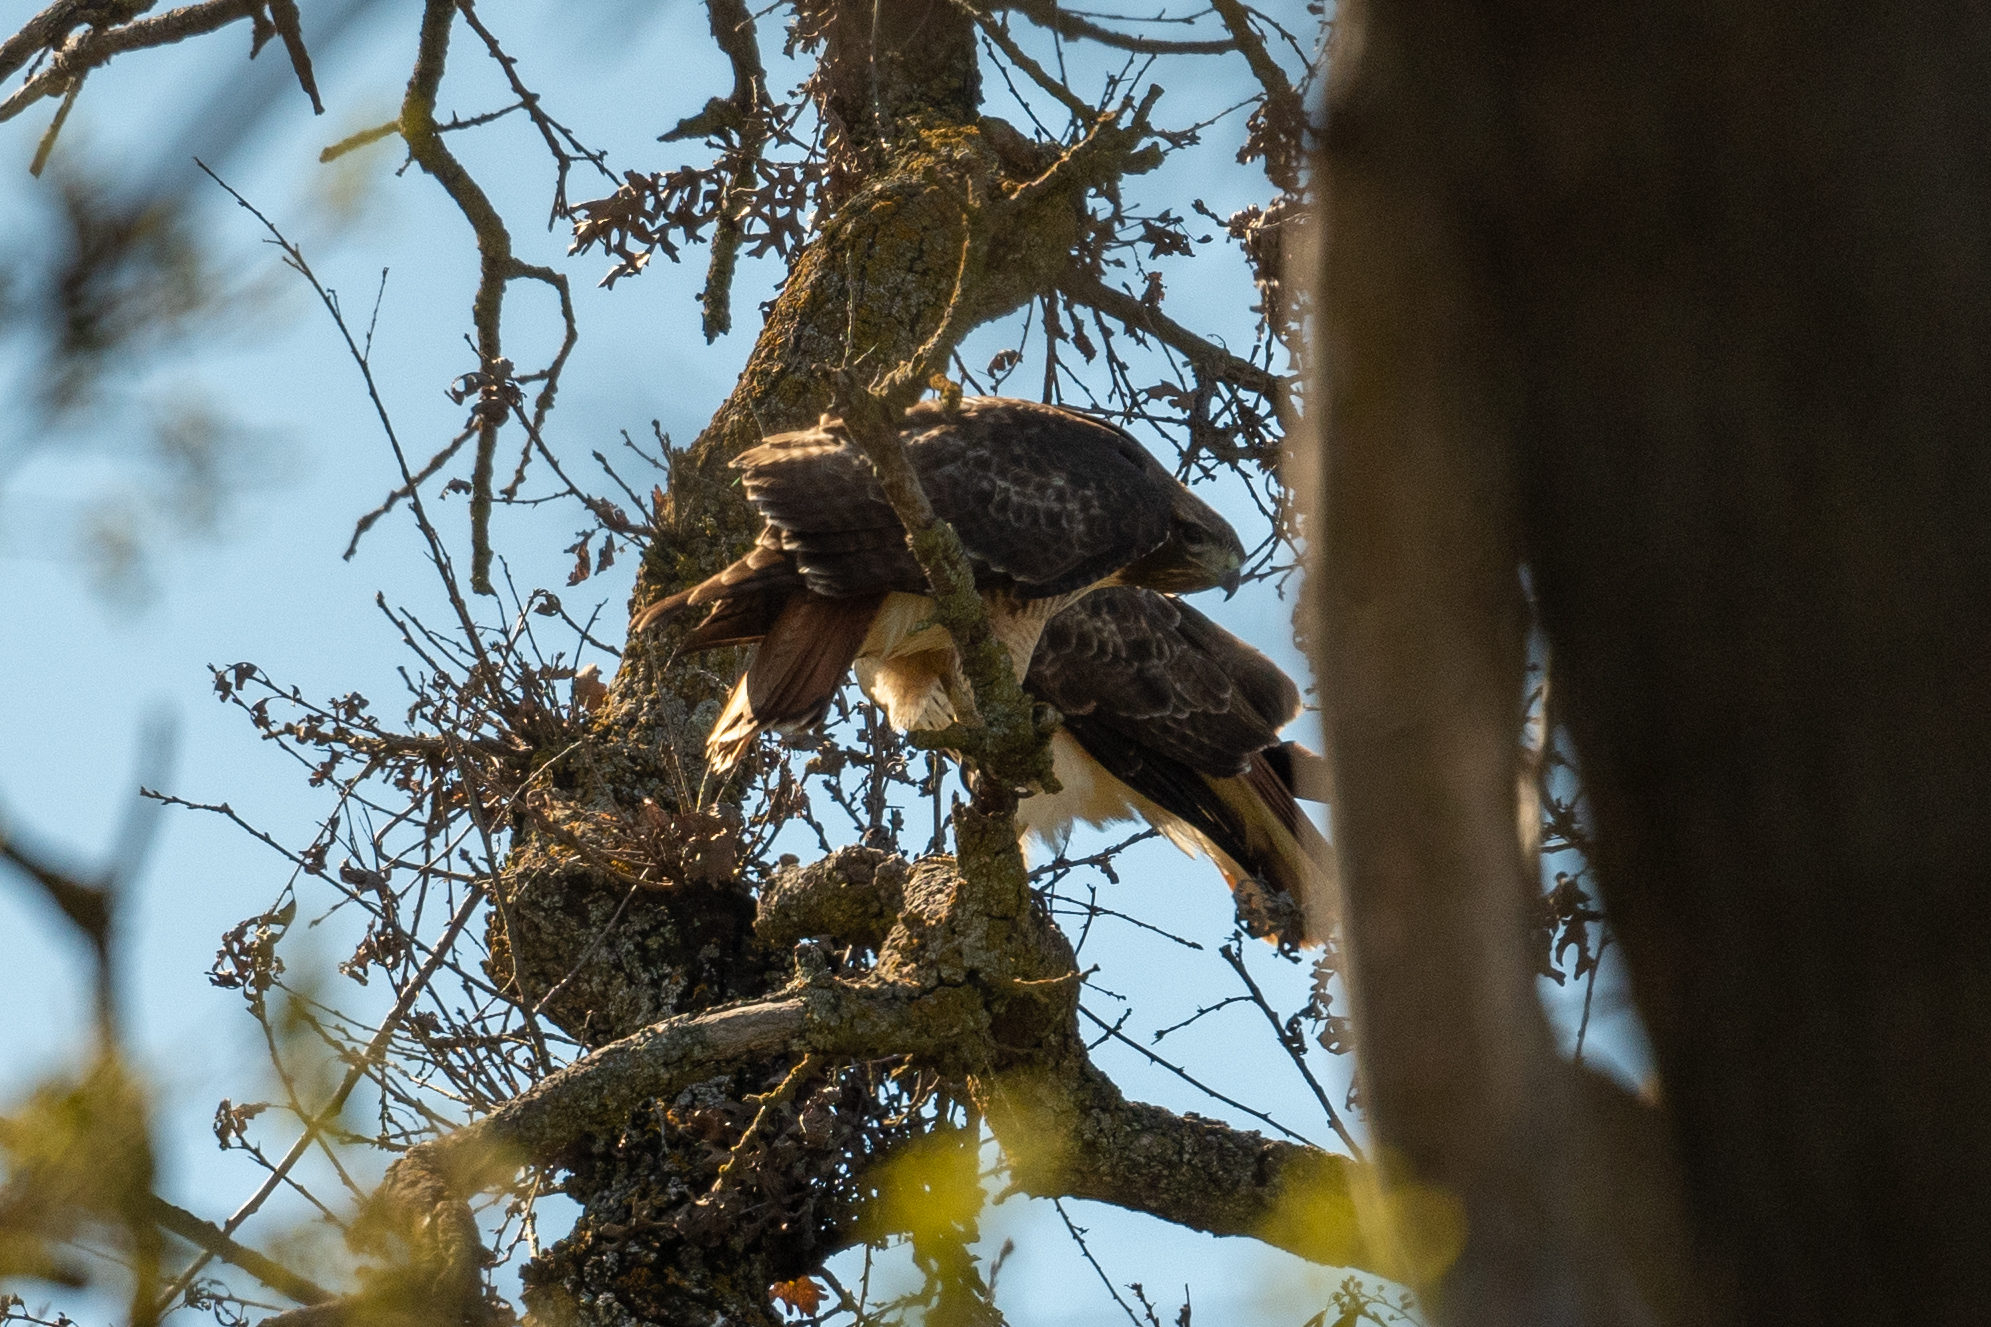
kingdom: Animalia
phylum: Chordata
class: Aves
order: Accipitriformes
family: Accipitridae
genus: Buteo
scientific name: Buteo jamaicensis
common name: Red-tailed hawk
